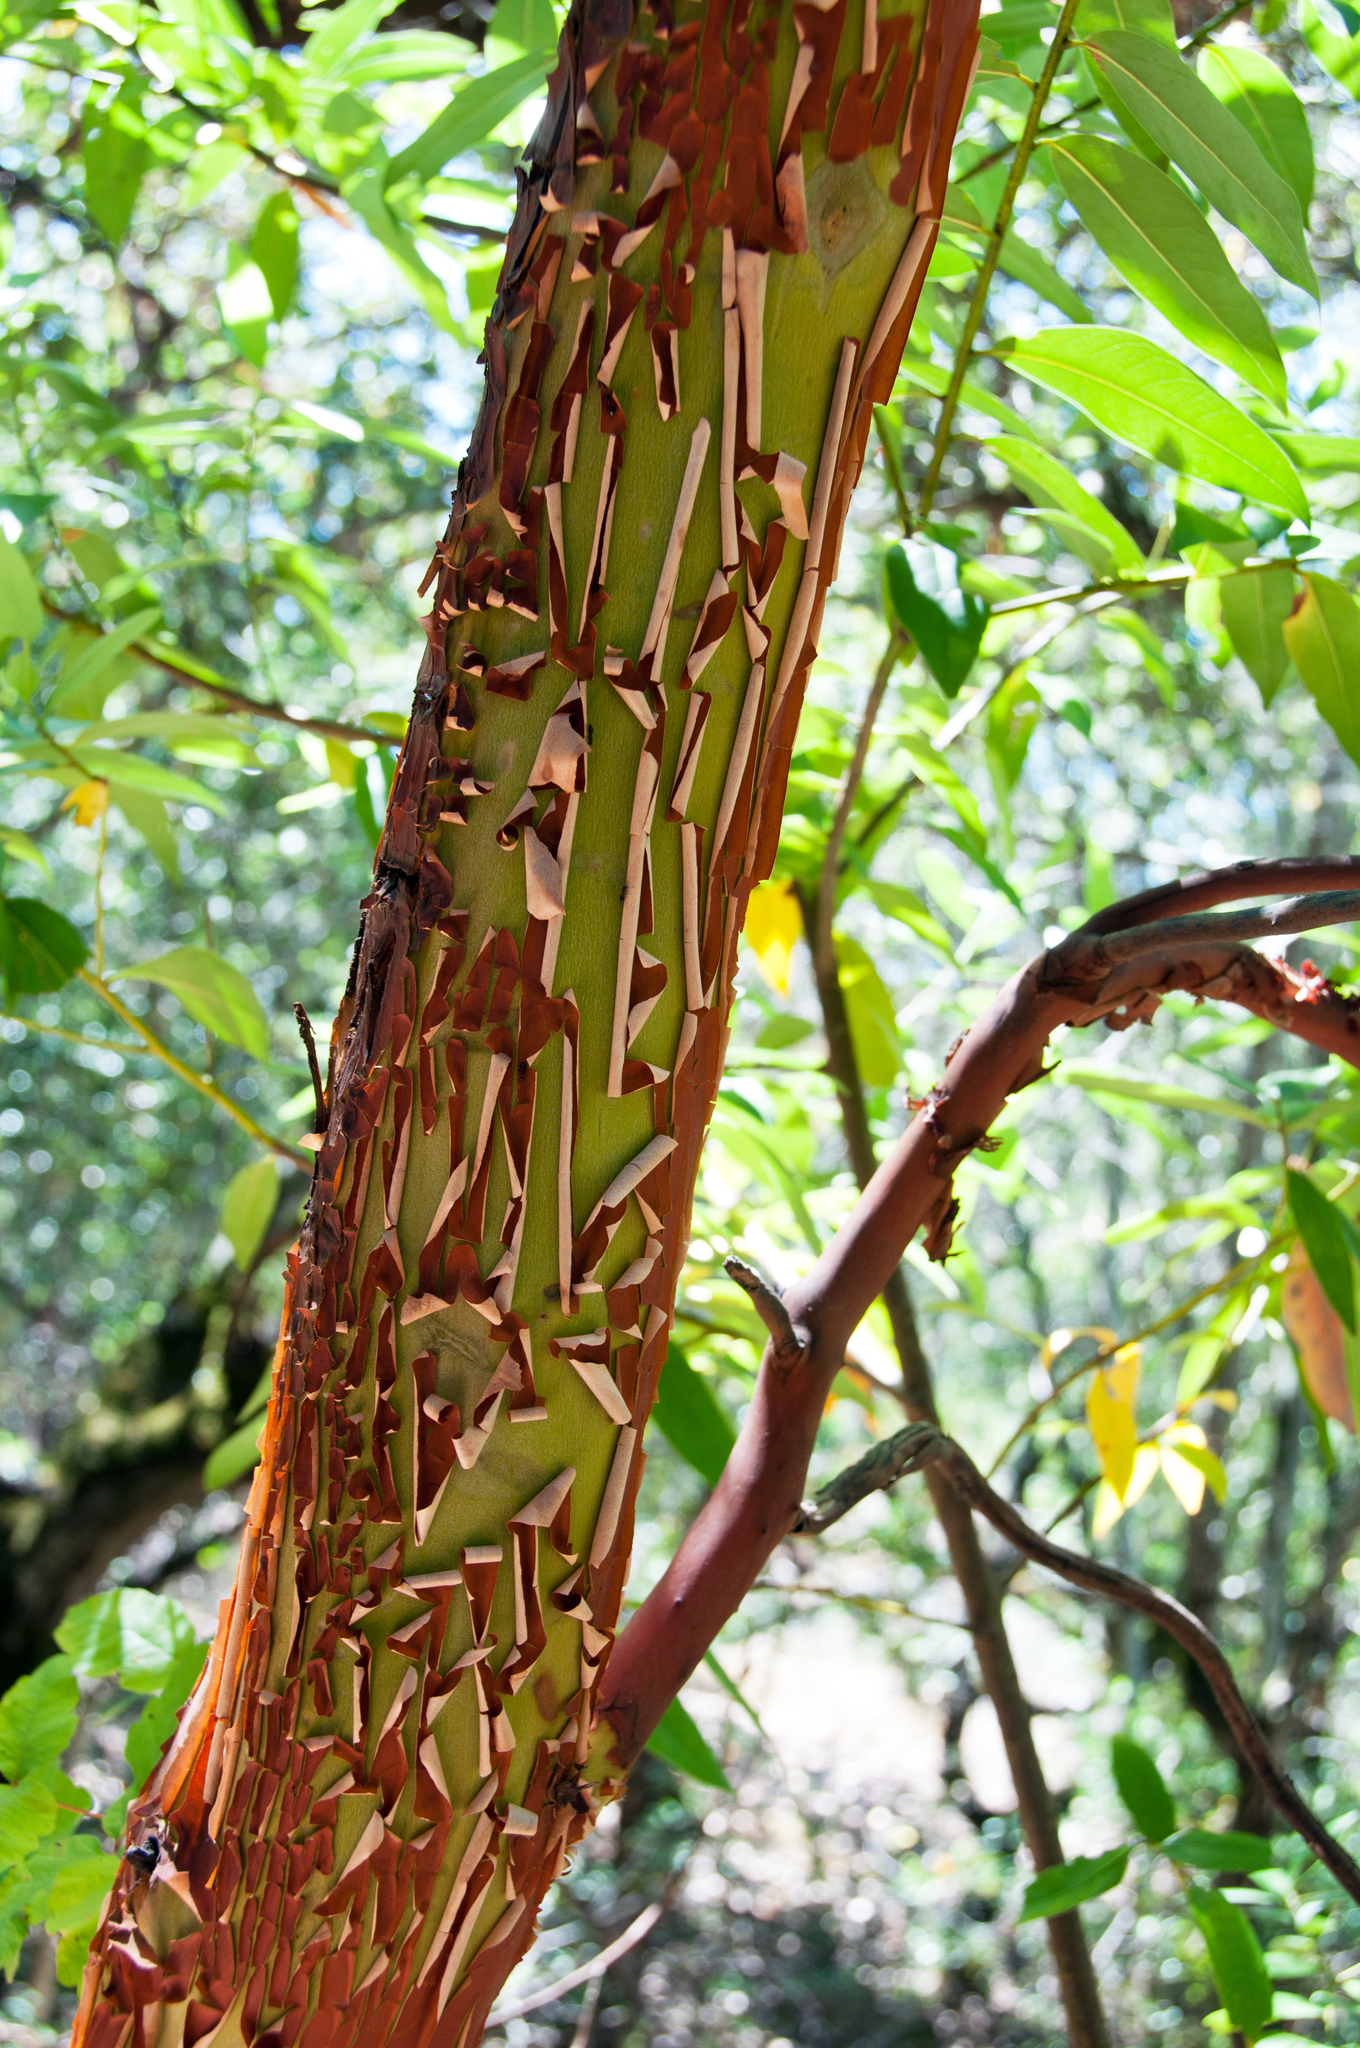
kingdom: Plantae
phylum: Tracheophyta
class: Magnoliopsida
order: Ericales
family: Ericaceae
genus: Arbutus
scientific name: Arbutus menziesii
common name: Pacific madrone
